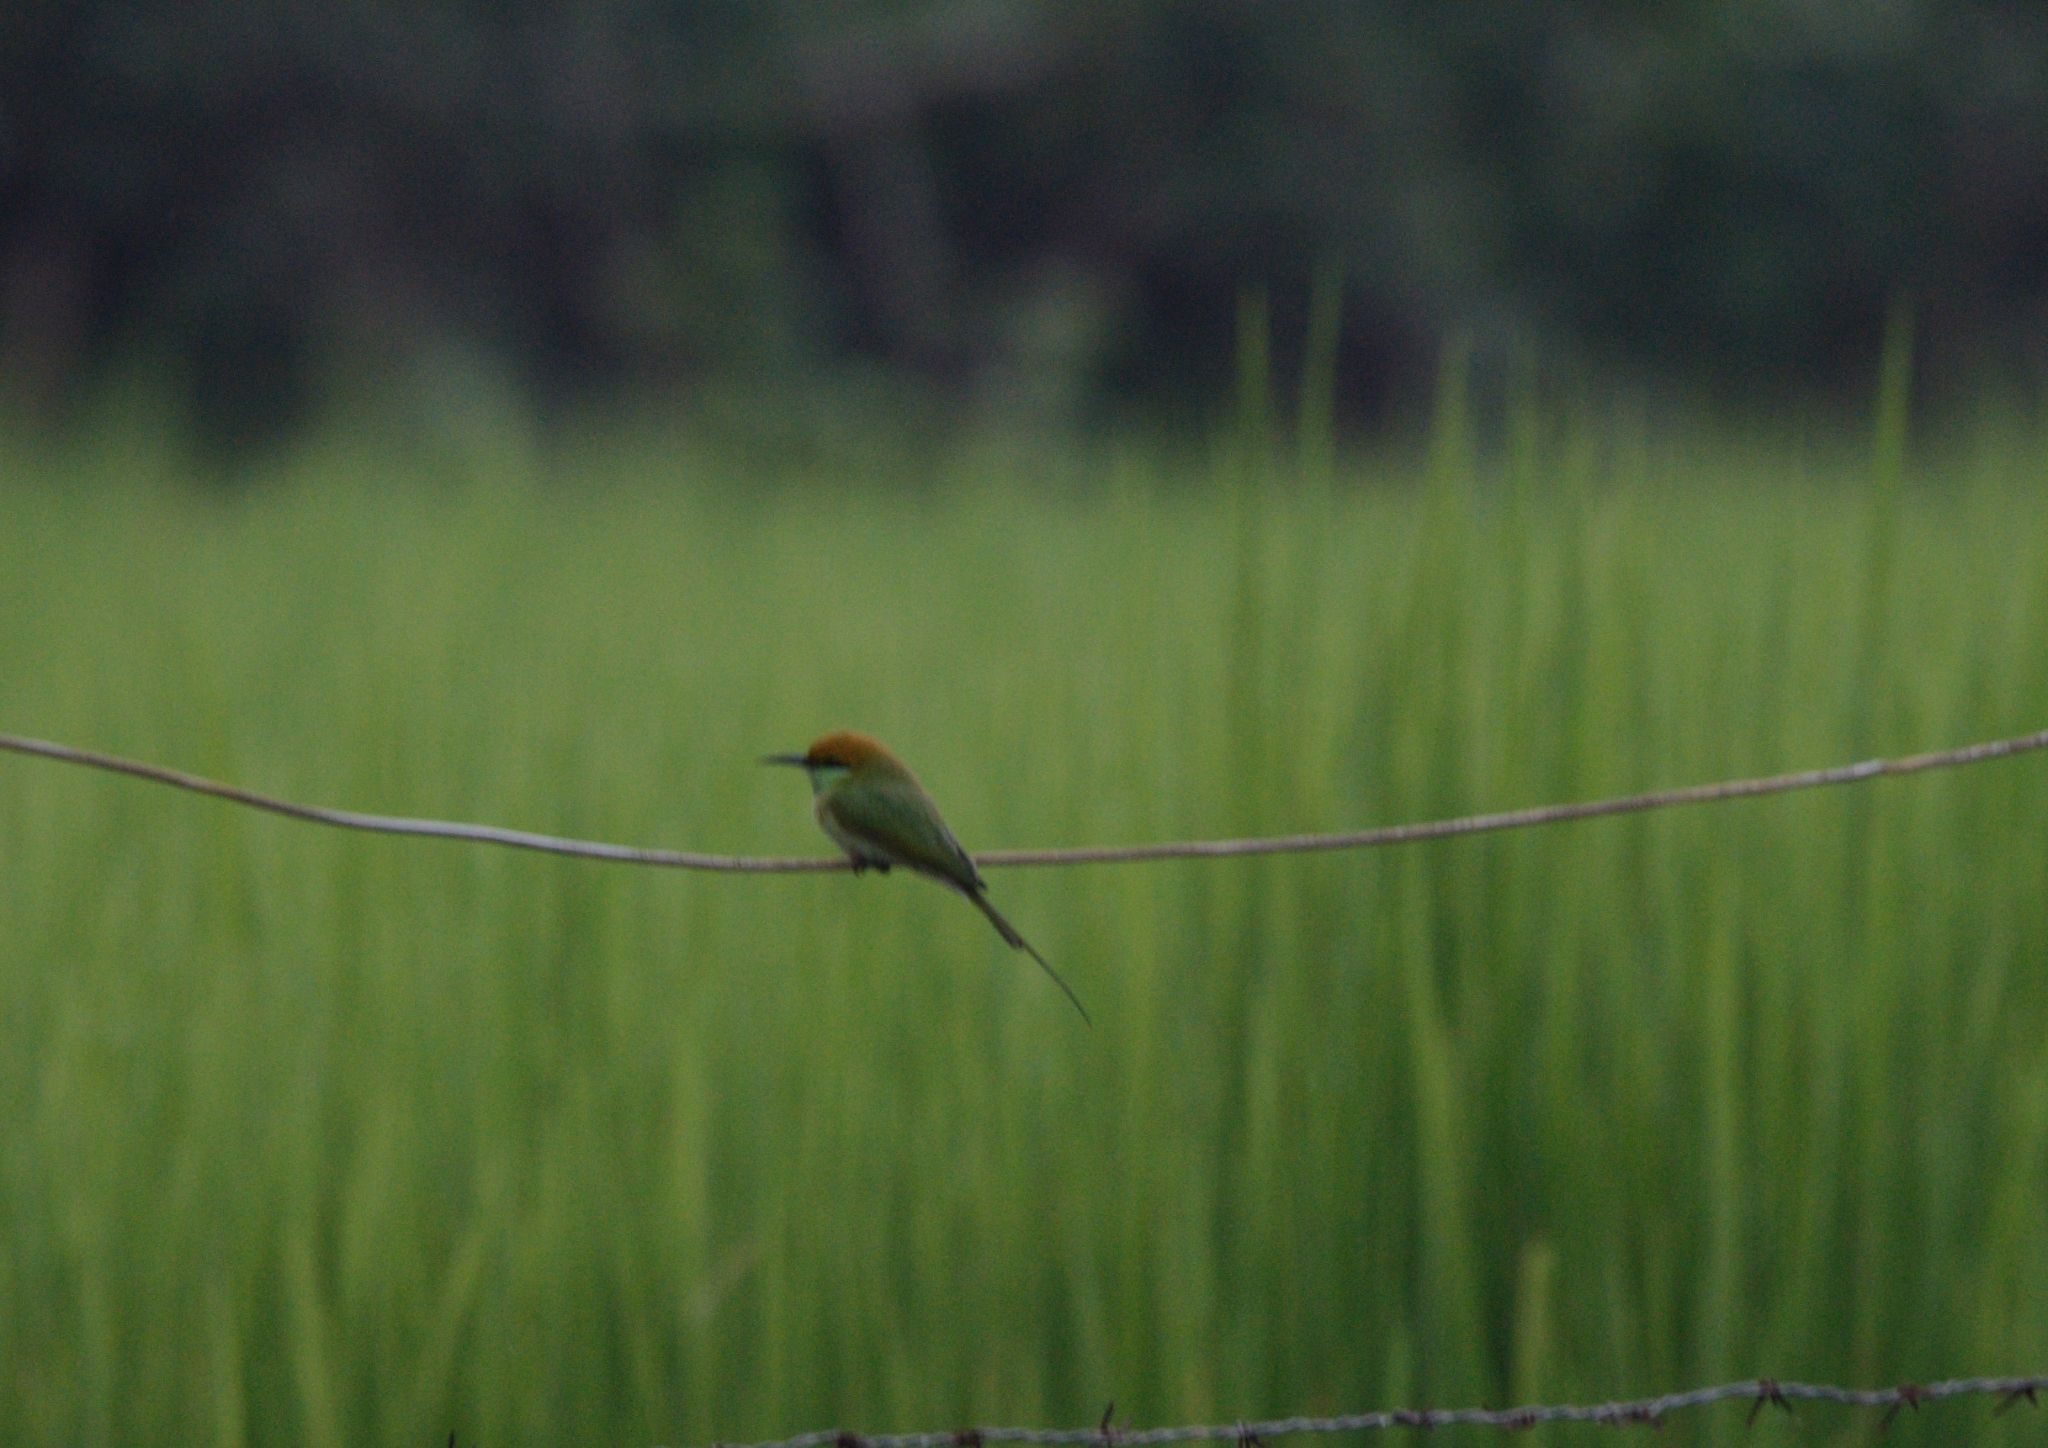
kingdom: Animalia
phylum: Chordata
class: Aves
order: Coraciiformes
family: Meropidae
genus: Merops
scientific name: Merops orientalis
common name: Green bee-eater
